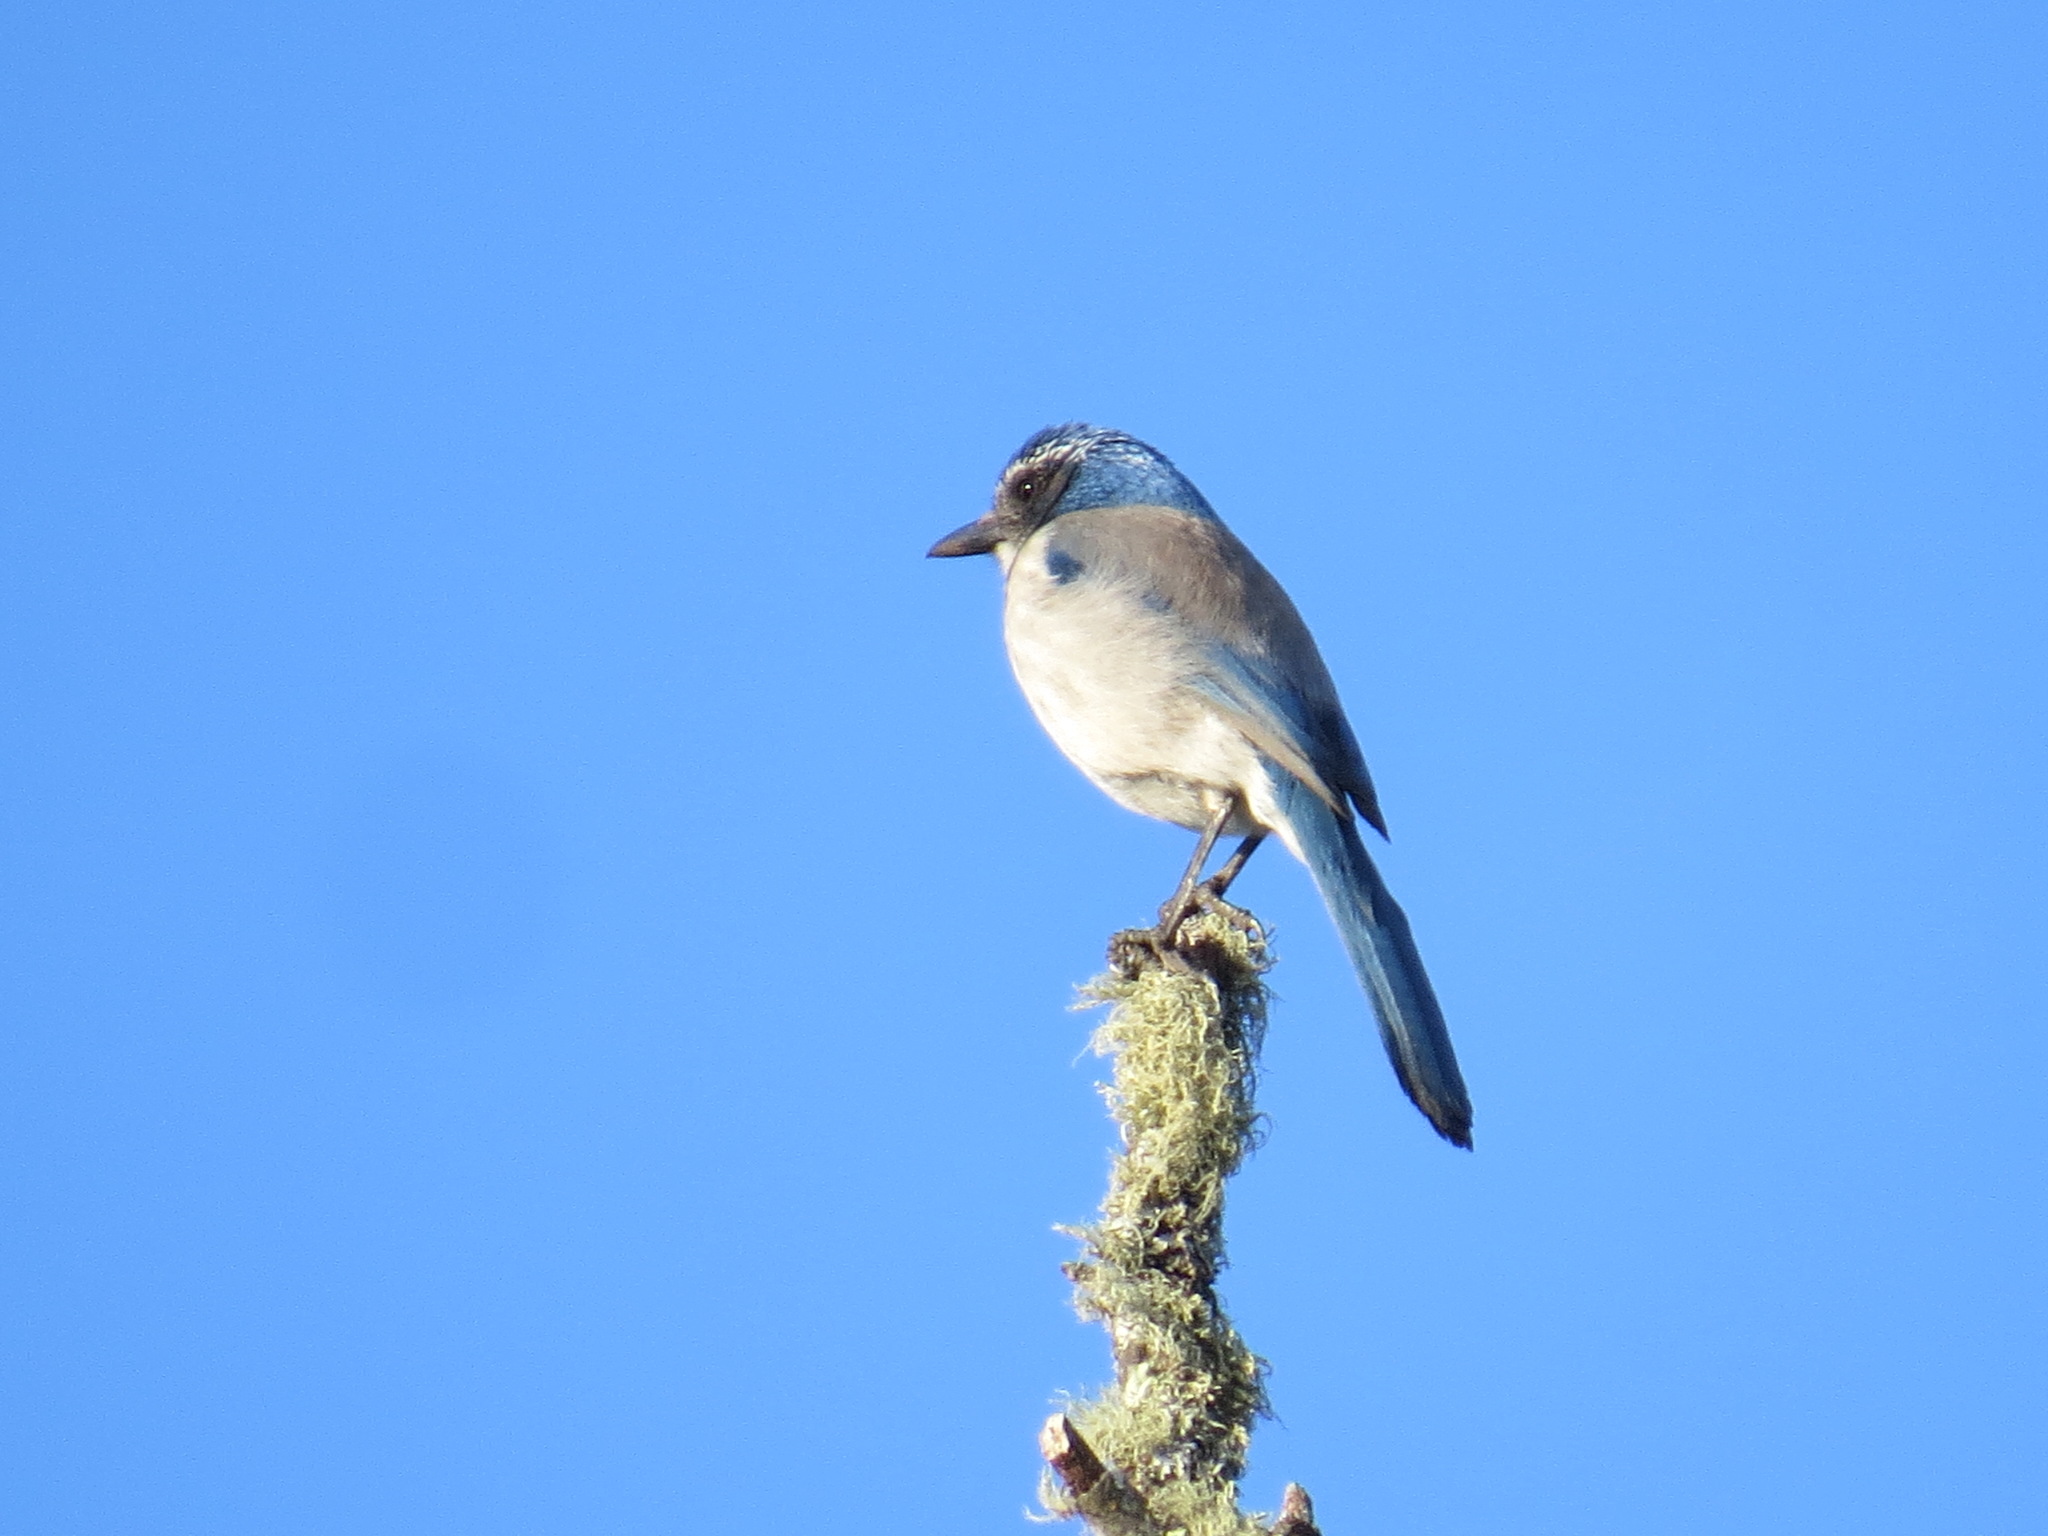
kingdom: Animalia
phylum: Chordata
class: Aves
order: Passeriformes
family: Corvidae
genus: Aphelocoma
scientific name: Aphelocoma californica
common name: California scrub-jay
